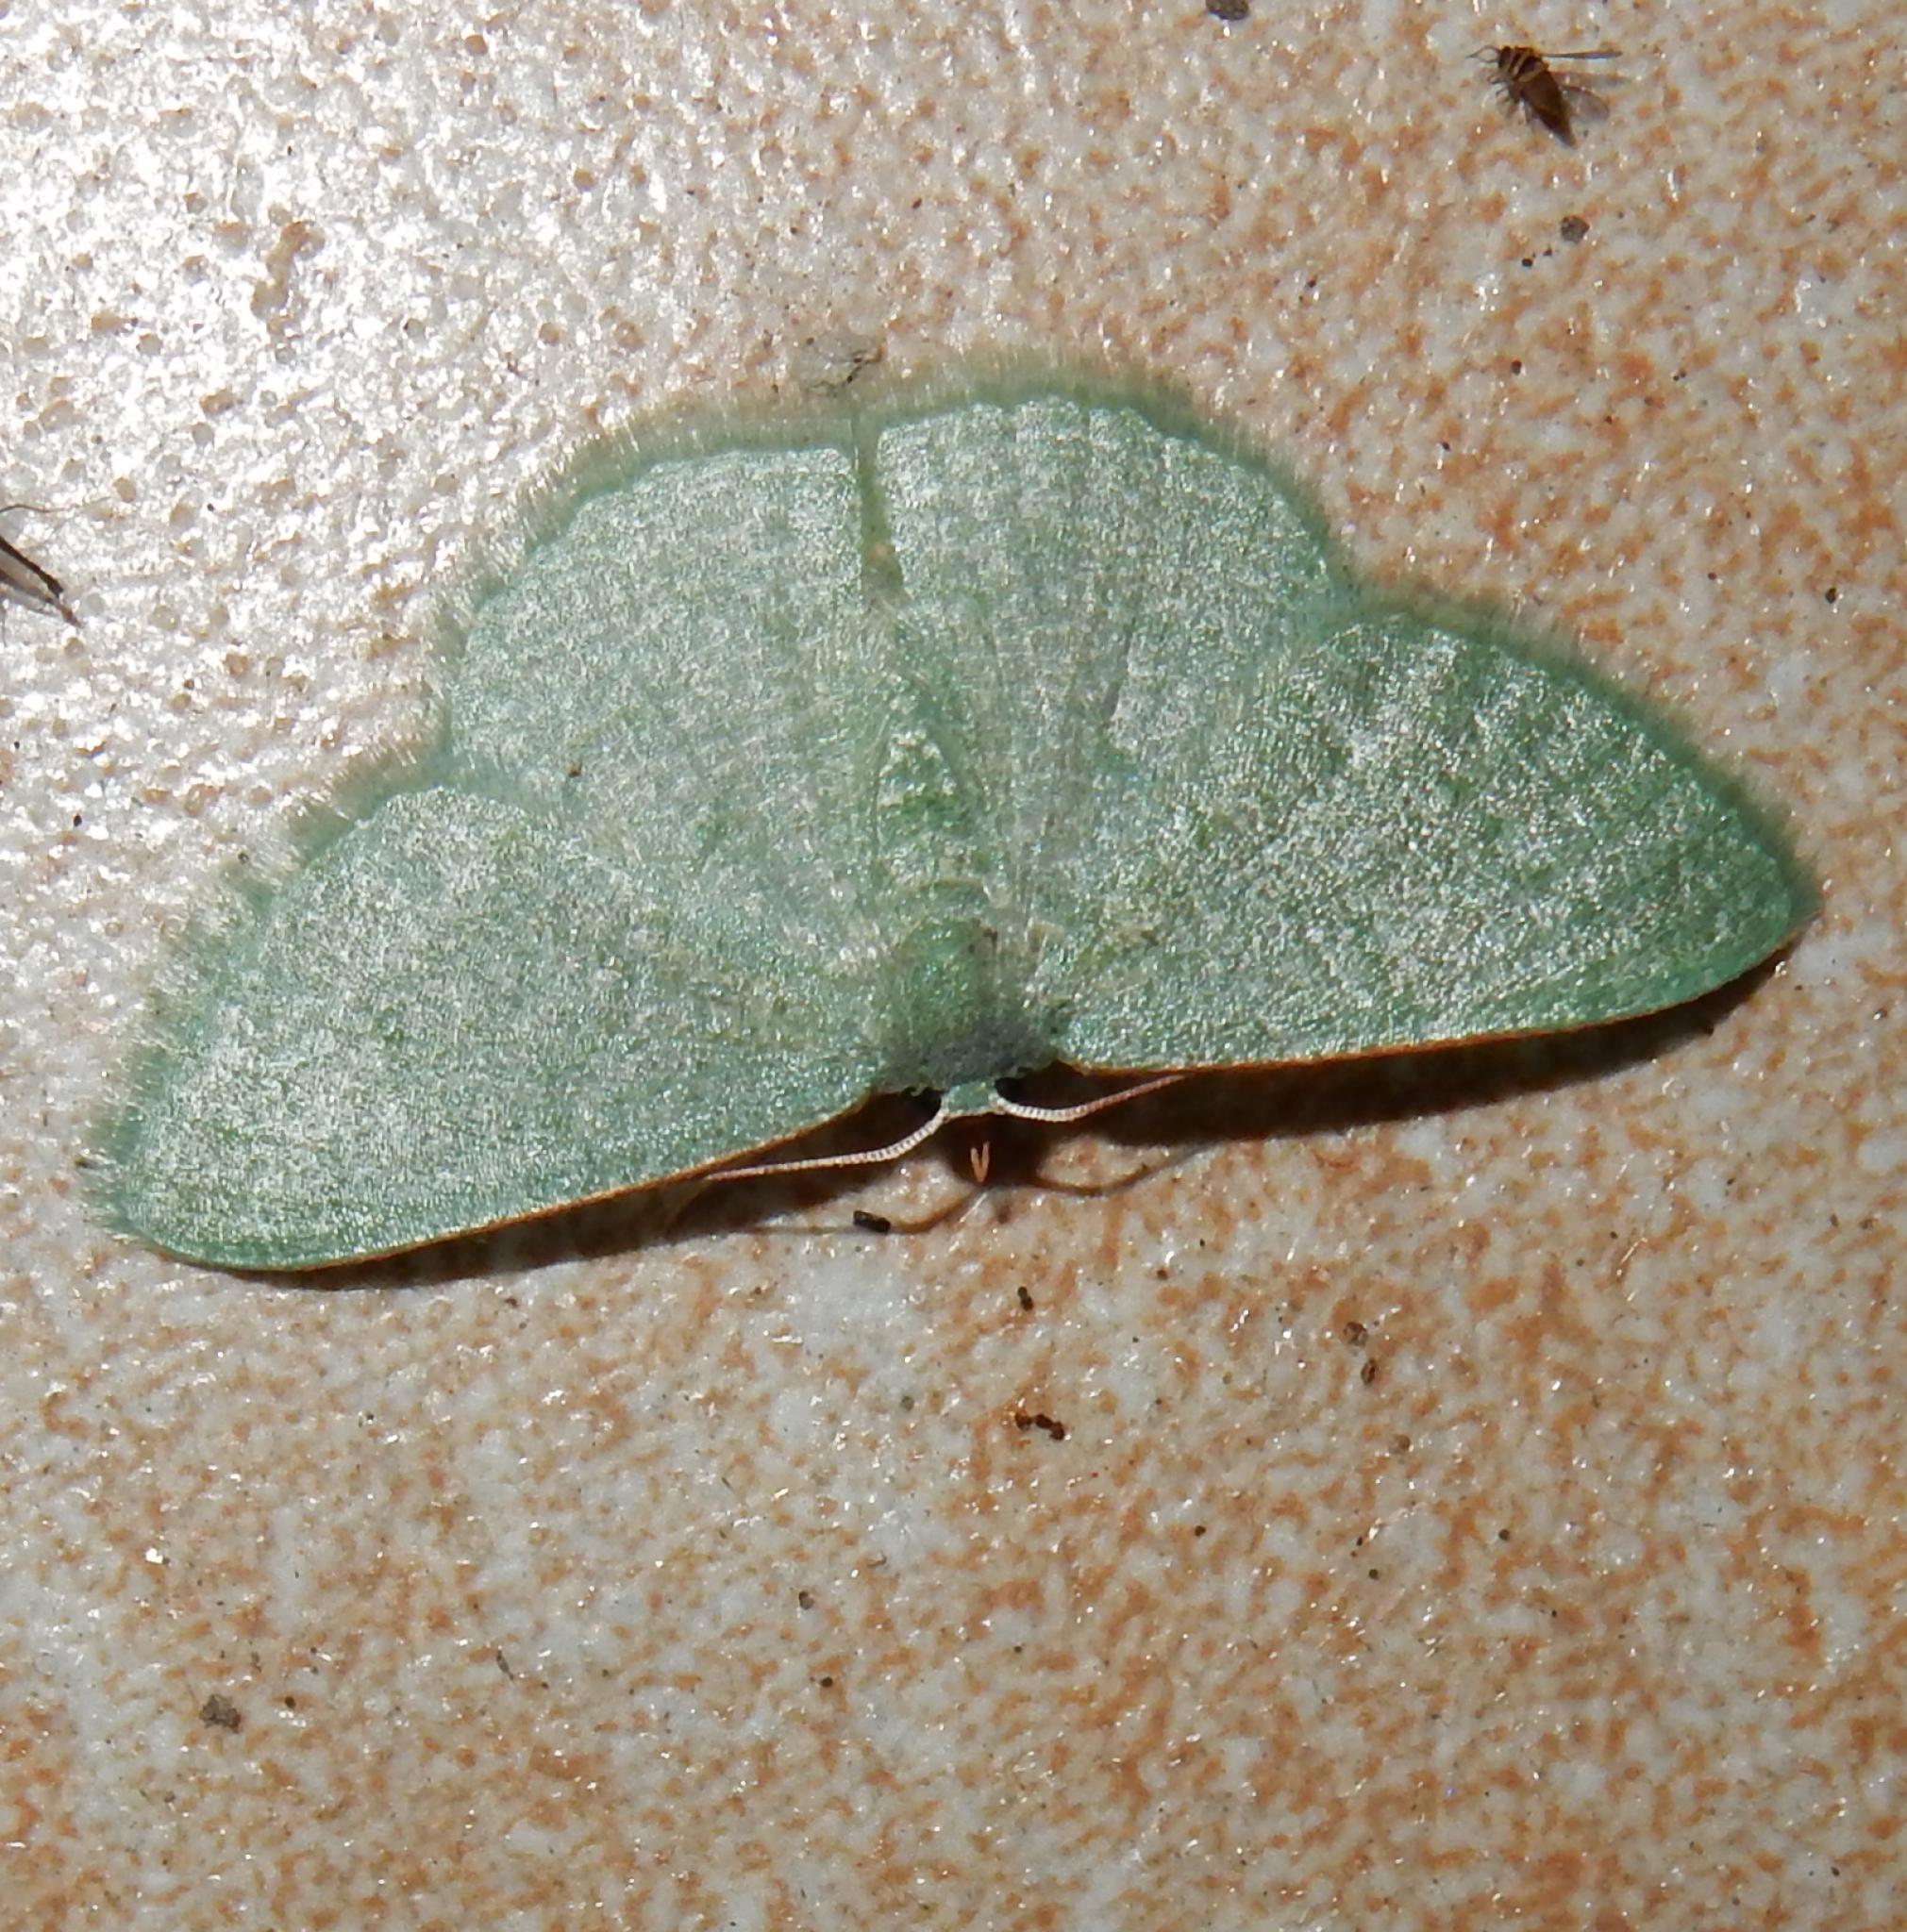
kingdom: Animalia
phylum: Arthropoda
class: Insecta
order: Lepidoptera
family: Geometridae
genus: Chlorissa
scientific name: Chlorissa dorsicristata
